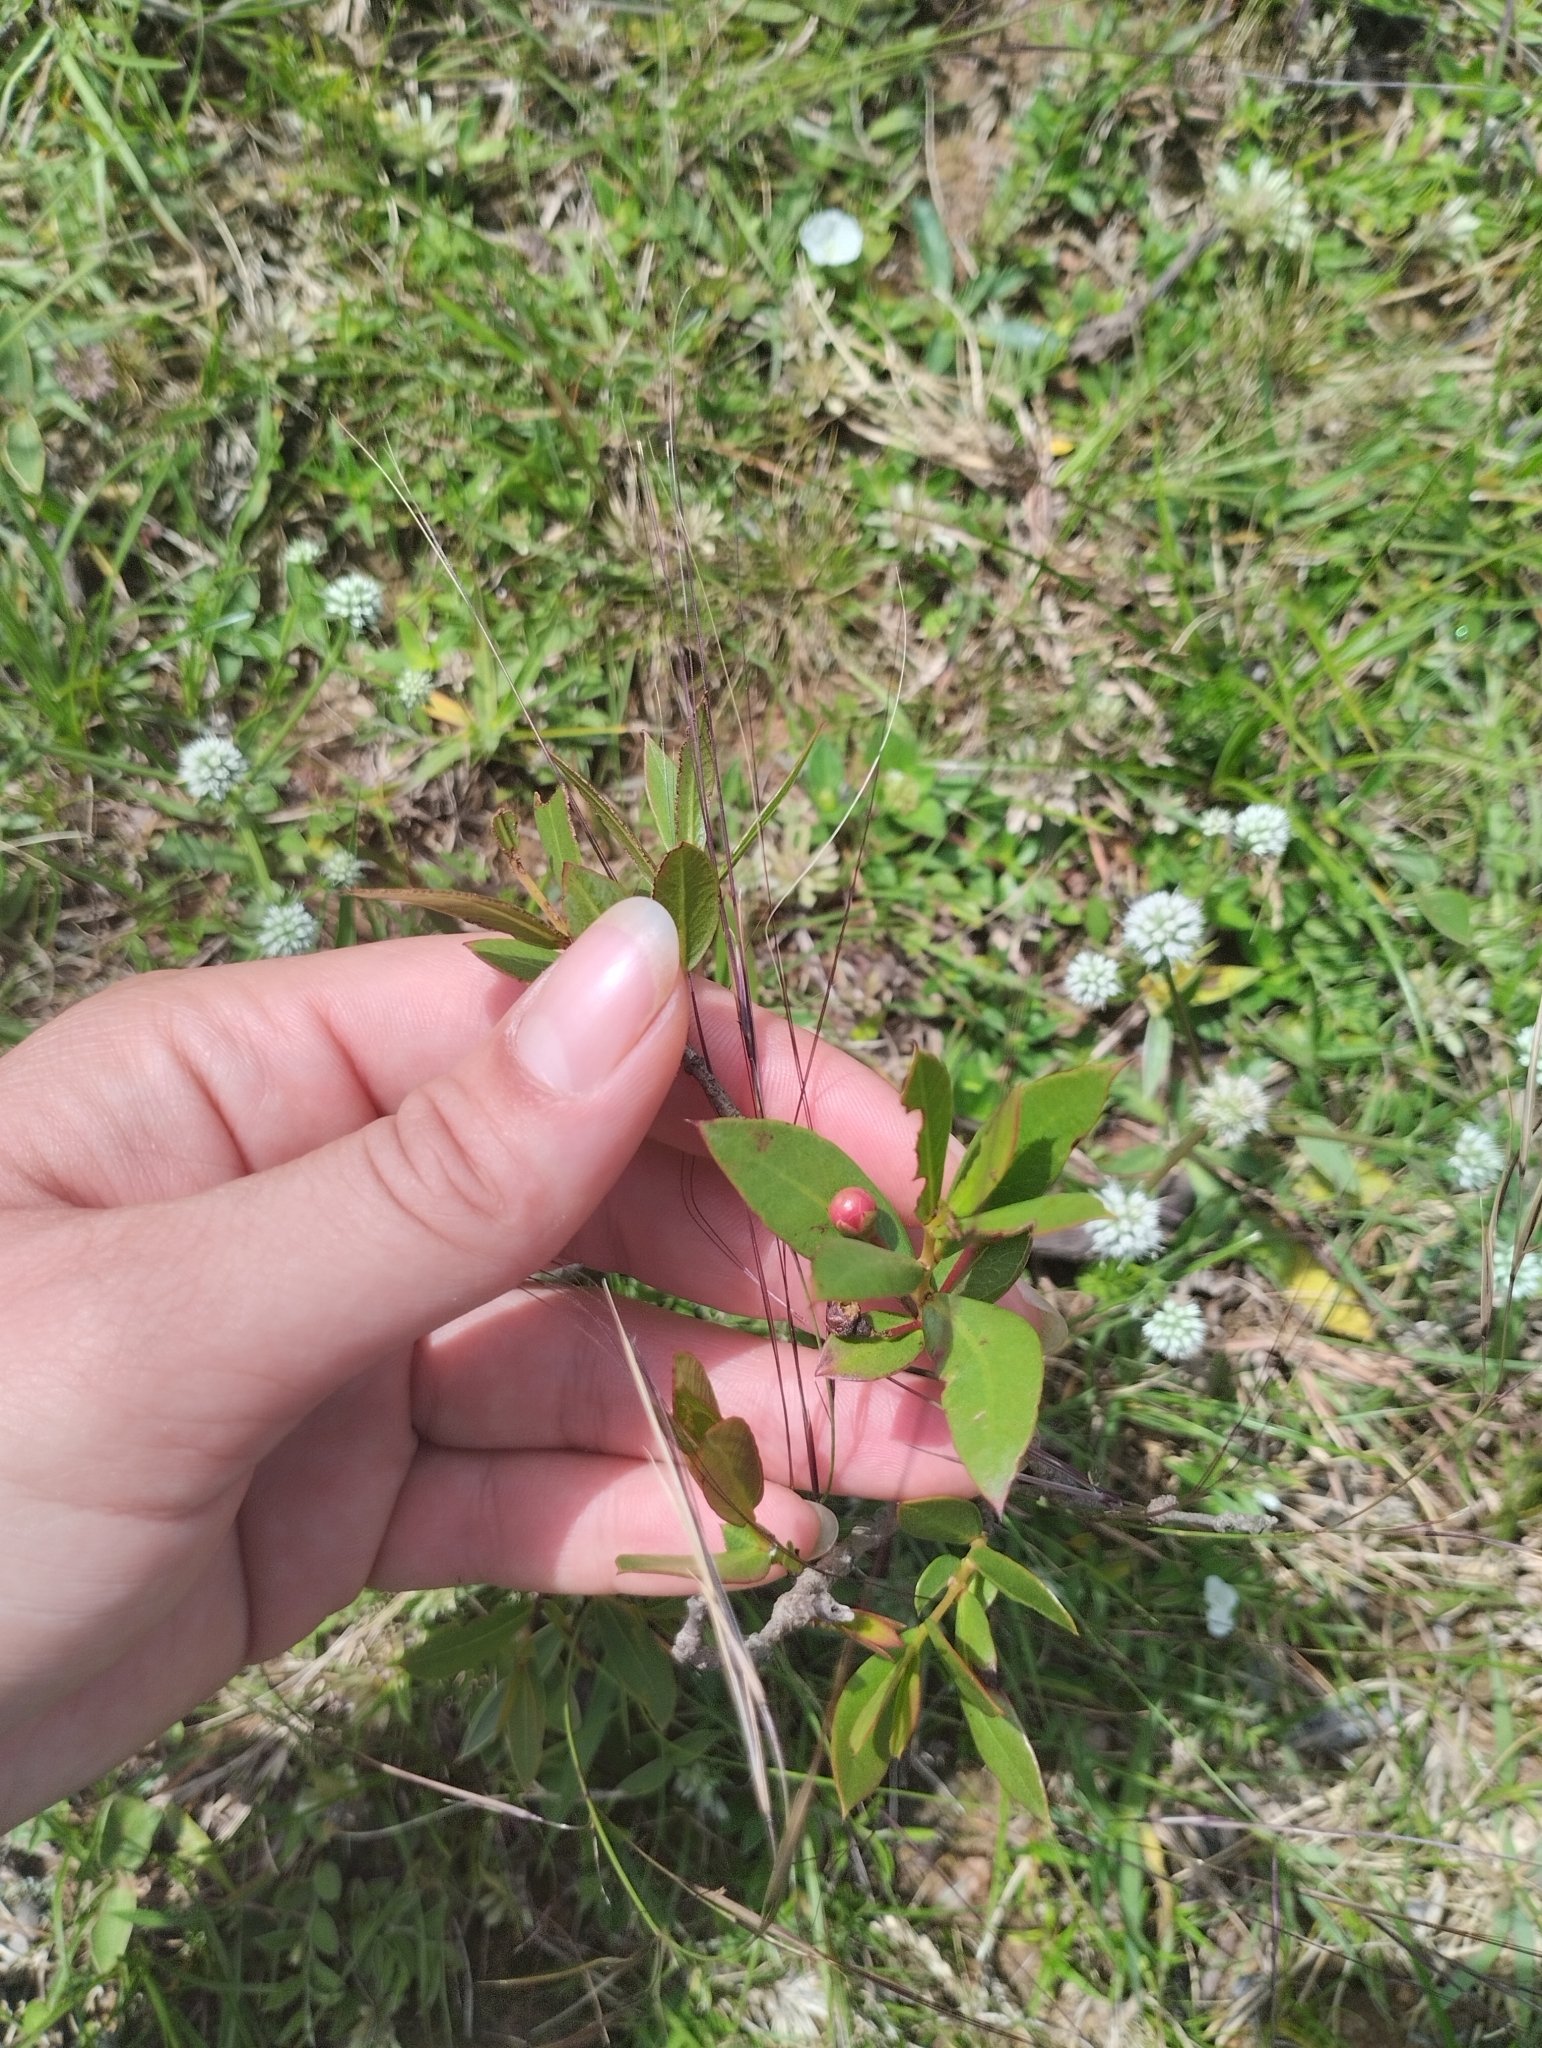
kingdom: Plantae
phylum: Tracheophyta
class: Magnoliopsida
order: Myrtales
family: Myrtaceae
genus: Psidium
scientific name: Psidium salutare
